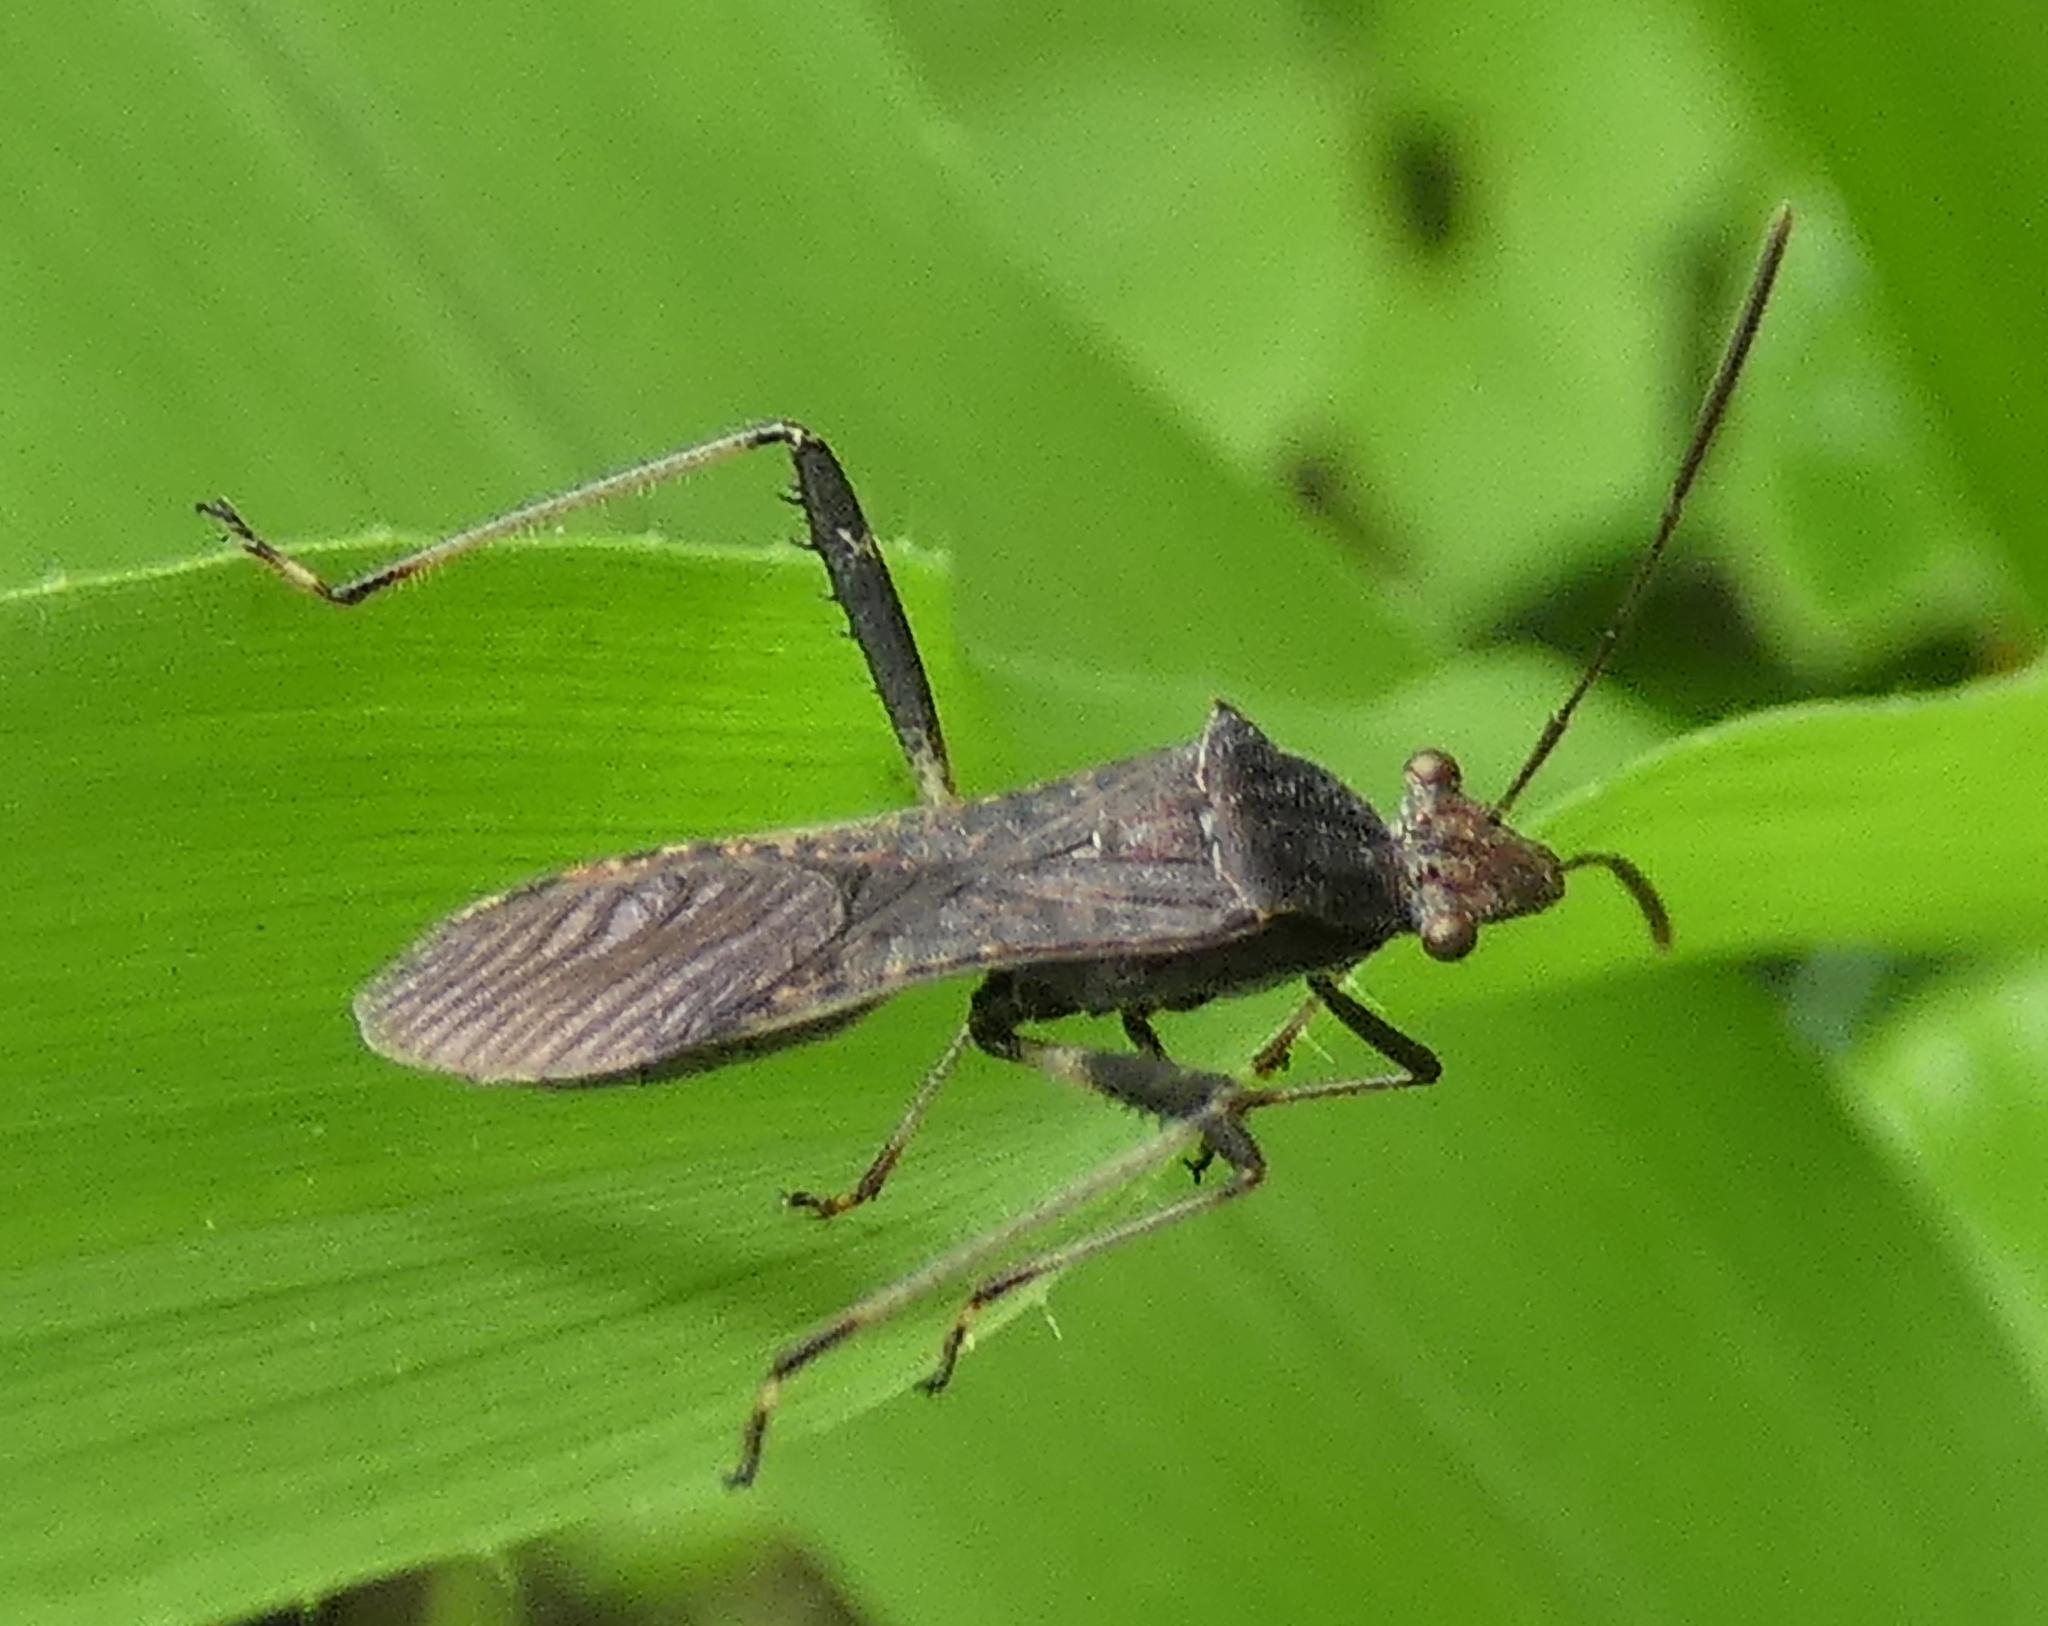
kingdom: Animalia
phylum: Arthropoda
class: Insecta
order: Hemiptera
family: Alydidae
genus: Neomegalotomus
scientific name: Neomegalotomus parvus
